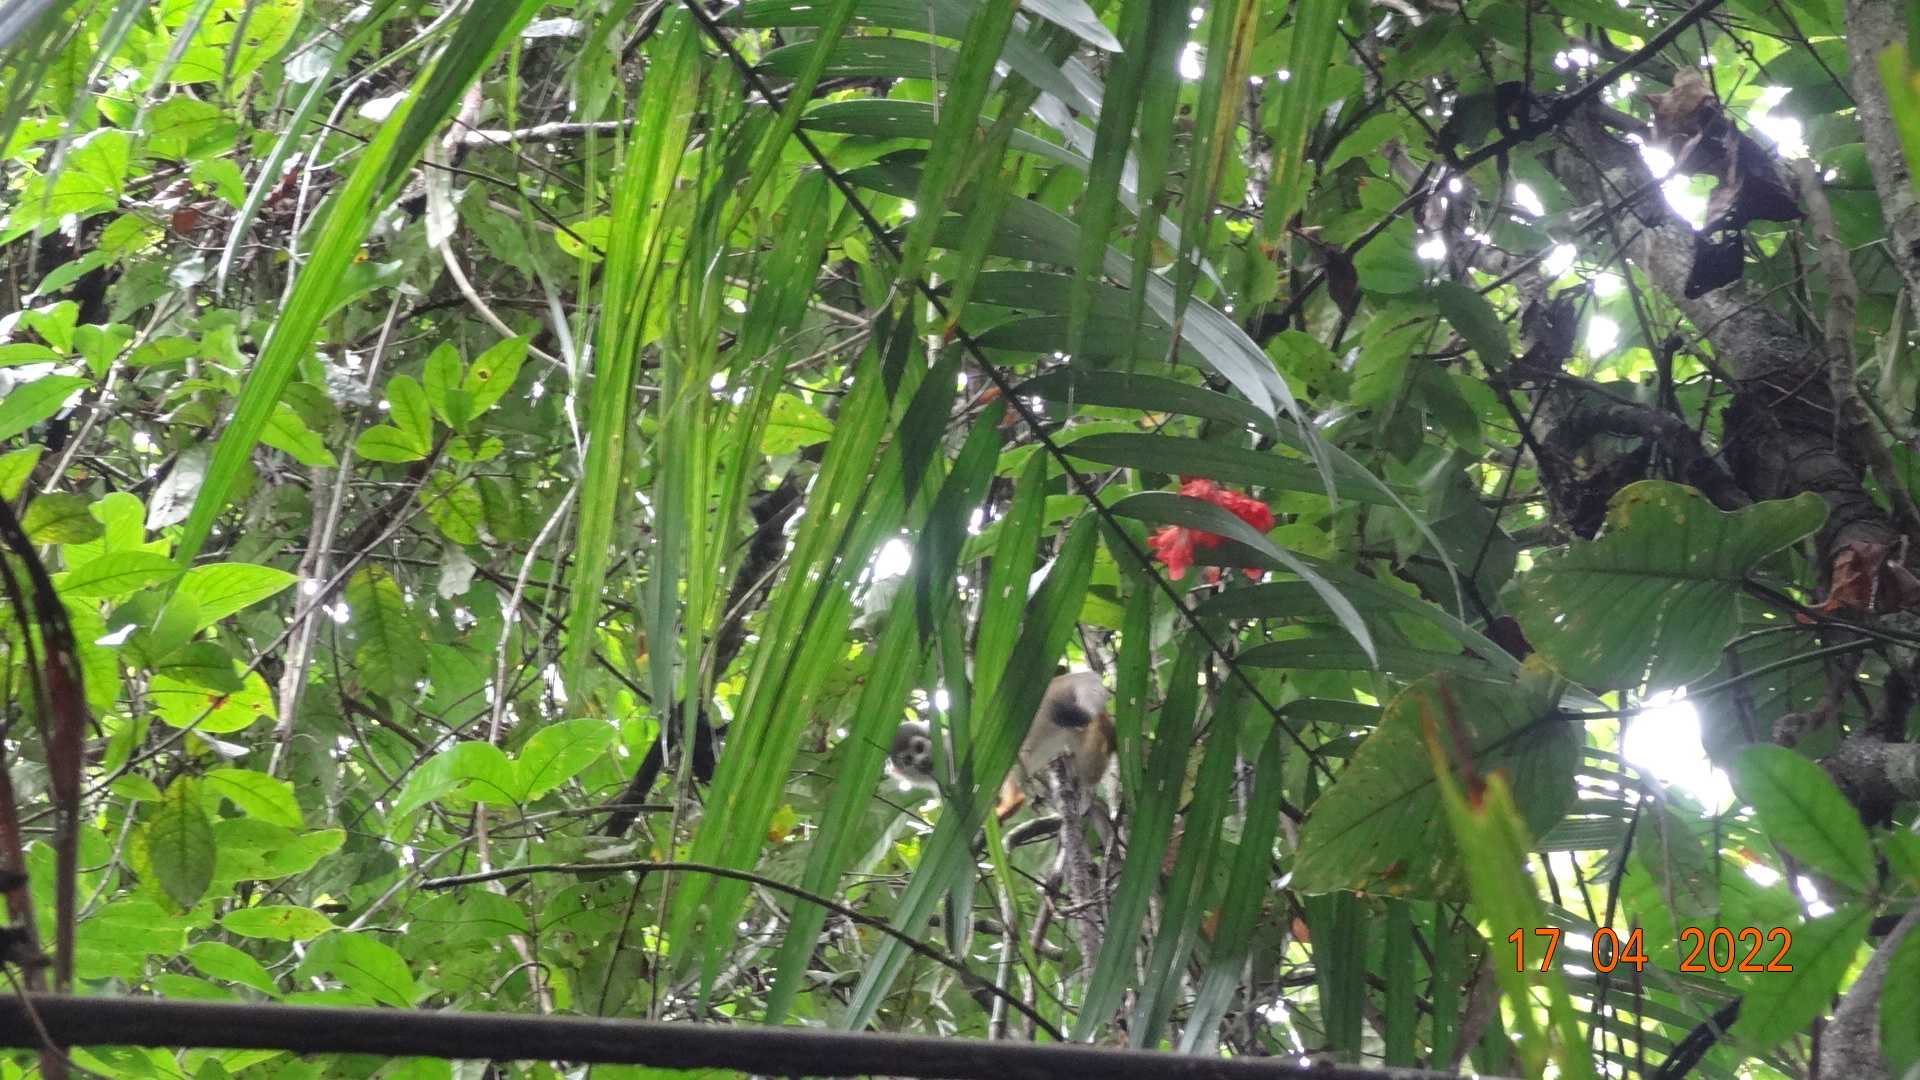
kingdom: Animalia
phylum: Chordata
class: Mammalia
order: Primates
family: Cebidae
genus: Saimiri
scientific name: Saimiri cassiquiarensis
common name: Humboldt’s squirrel monkey
